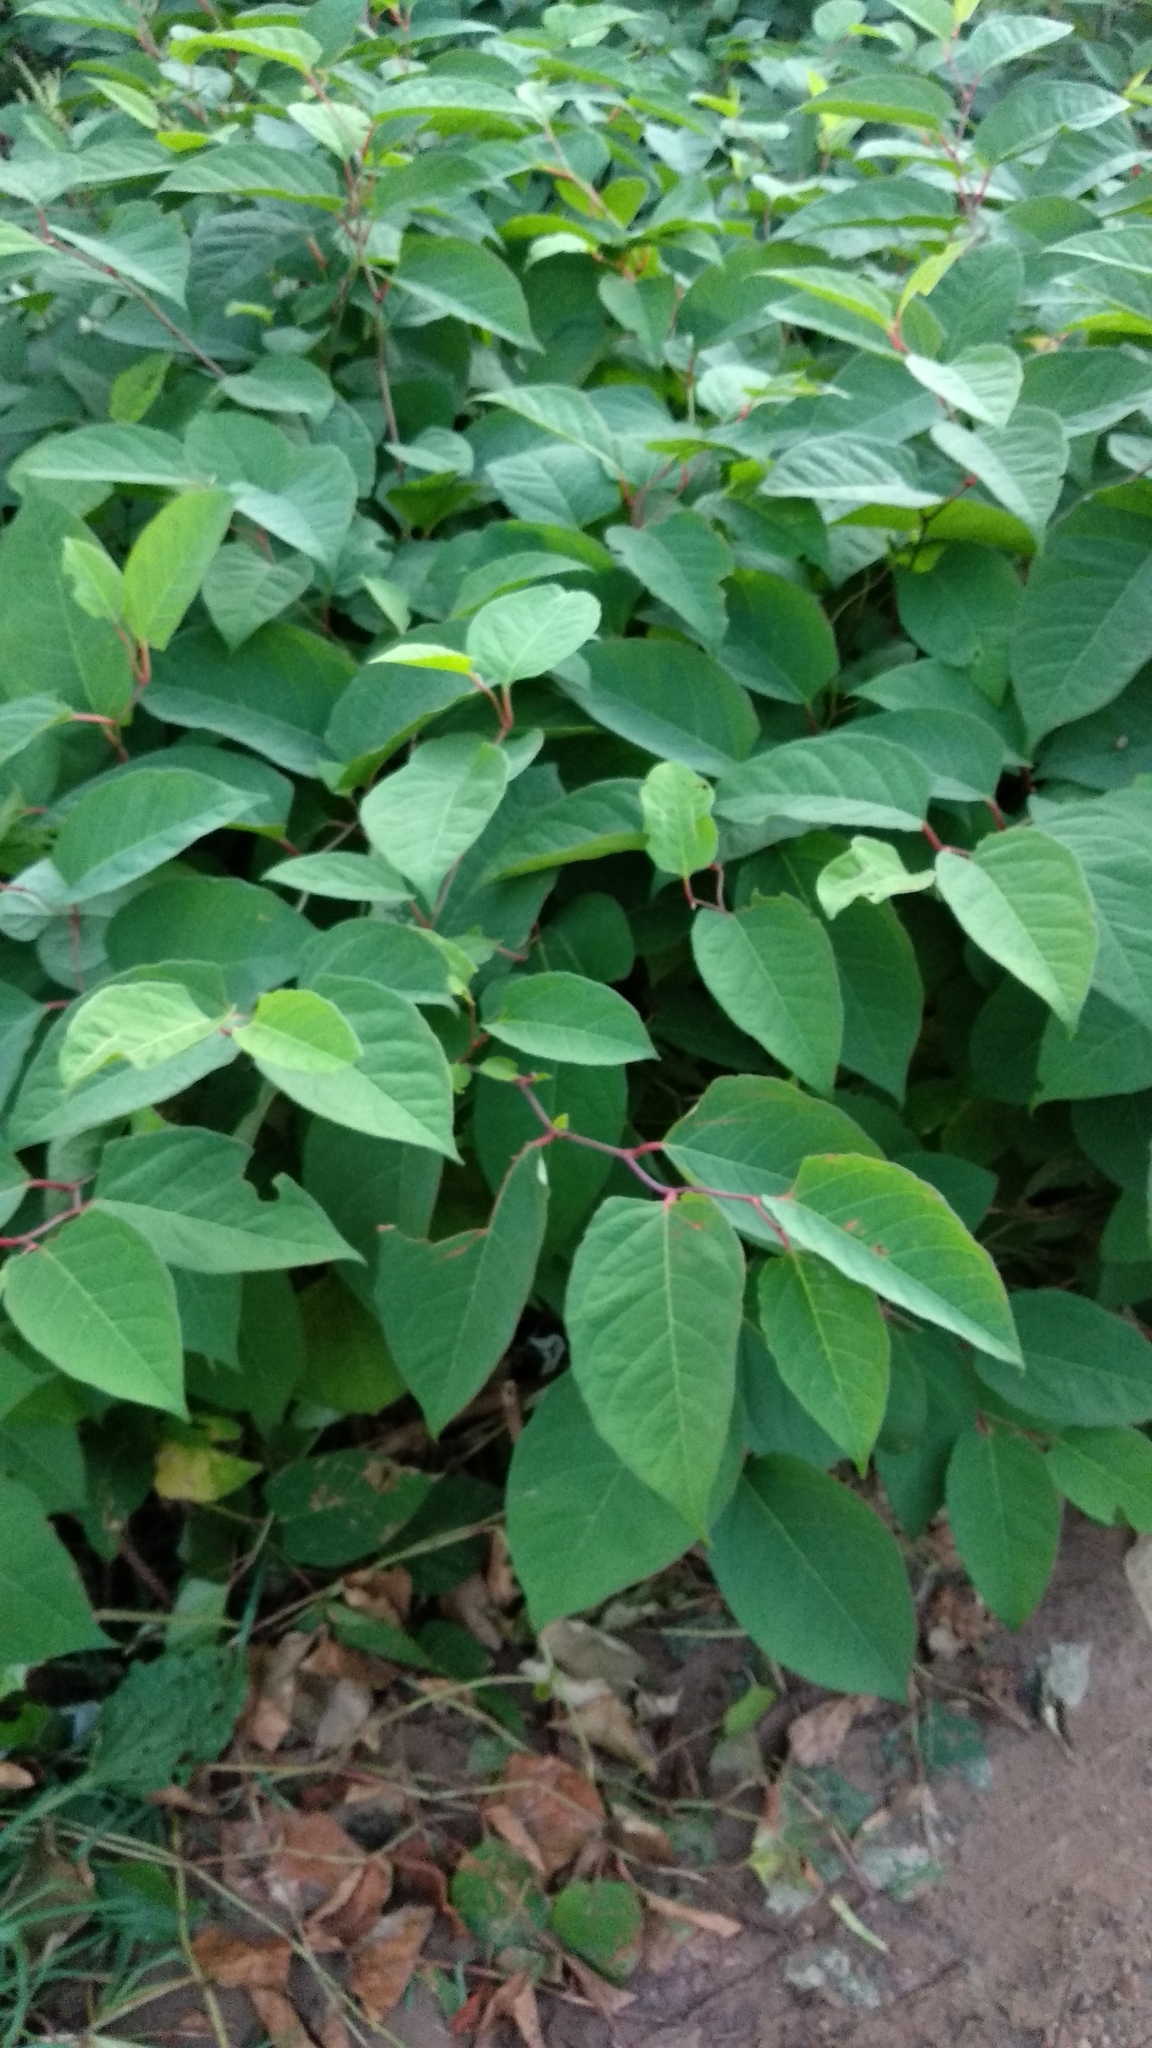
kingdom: Plantae
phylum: Tracheophyta
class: Magnoliopsida
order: Caryophyllales
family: Polygonaceae
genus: Reynoutria
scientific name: Reynoutria japonica
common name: Japanese knotweed
